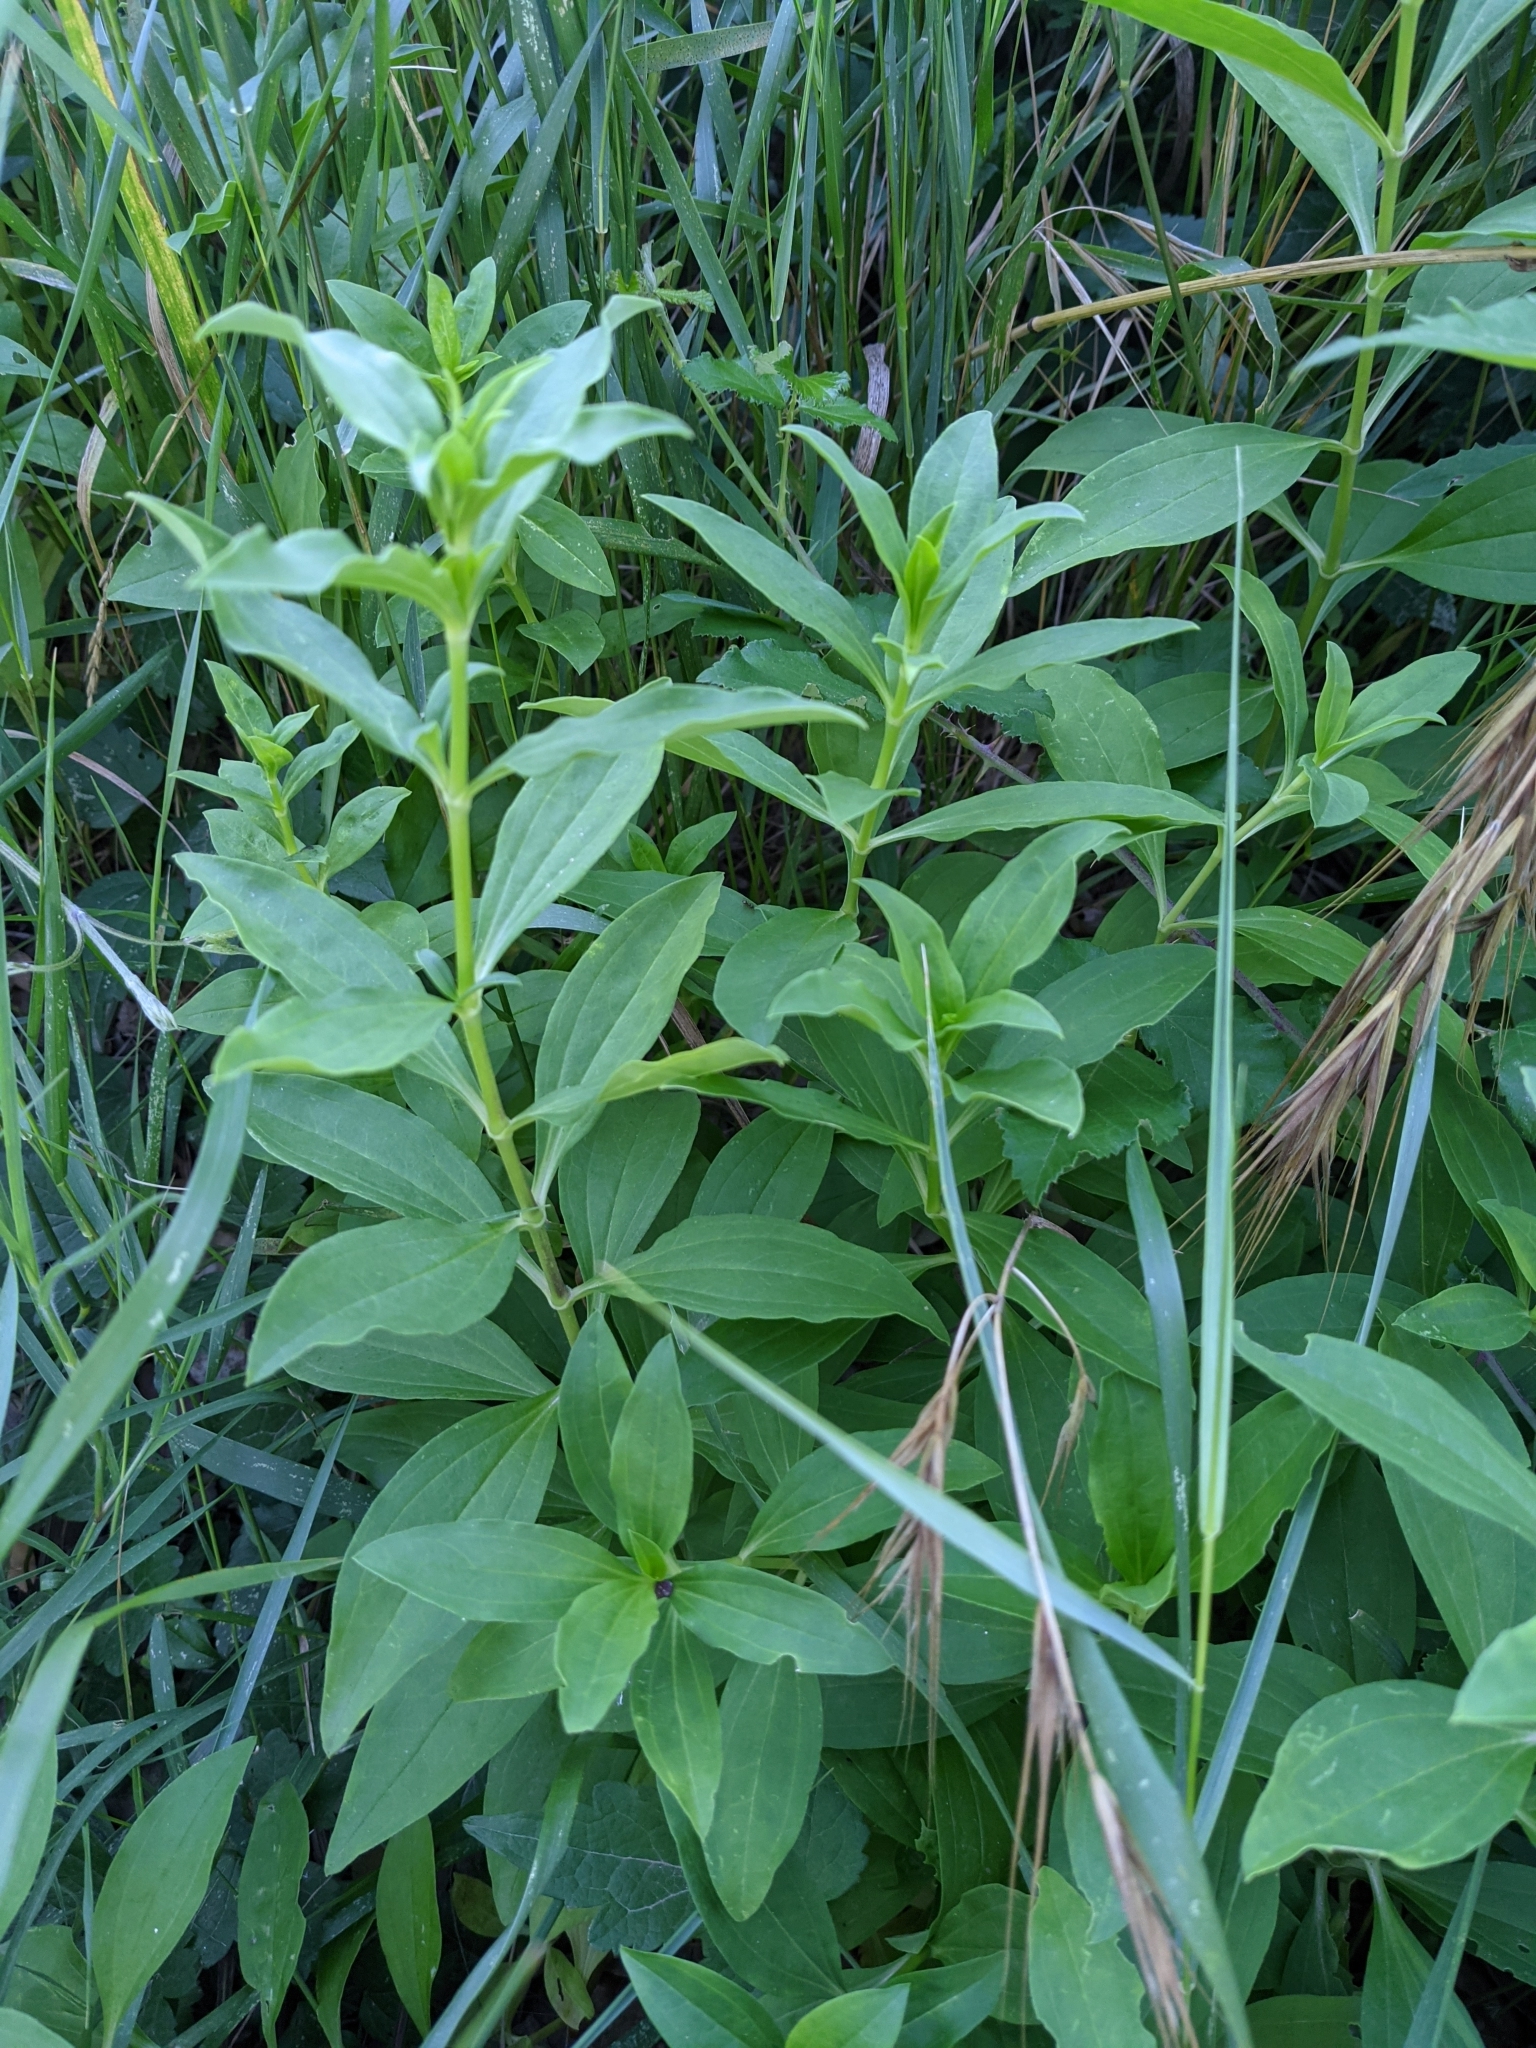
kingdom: Plantae
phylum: Tracheophyta
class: Magnoliopsida
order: Caryophyllales
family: Caryophyllaceae
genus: Saponaria
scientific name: Saponaria officinalis
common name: Soapwort
